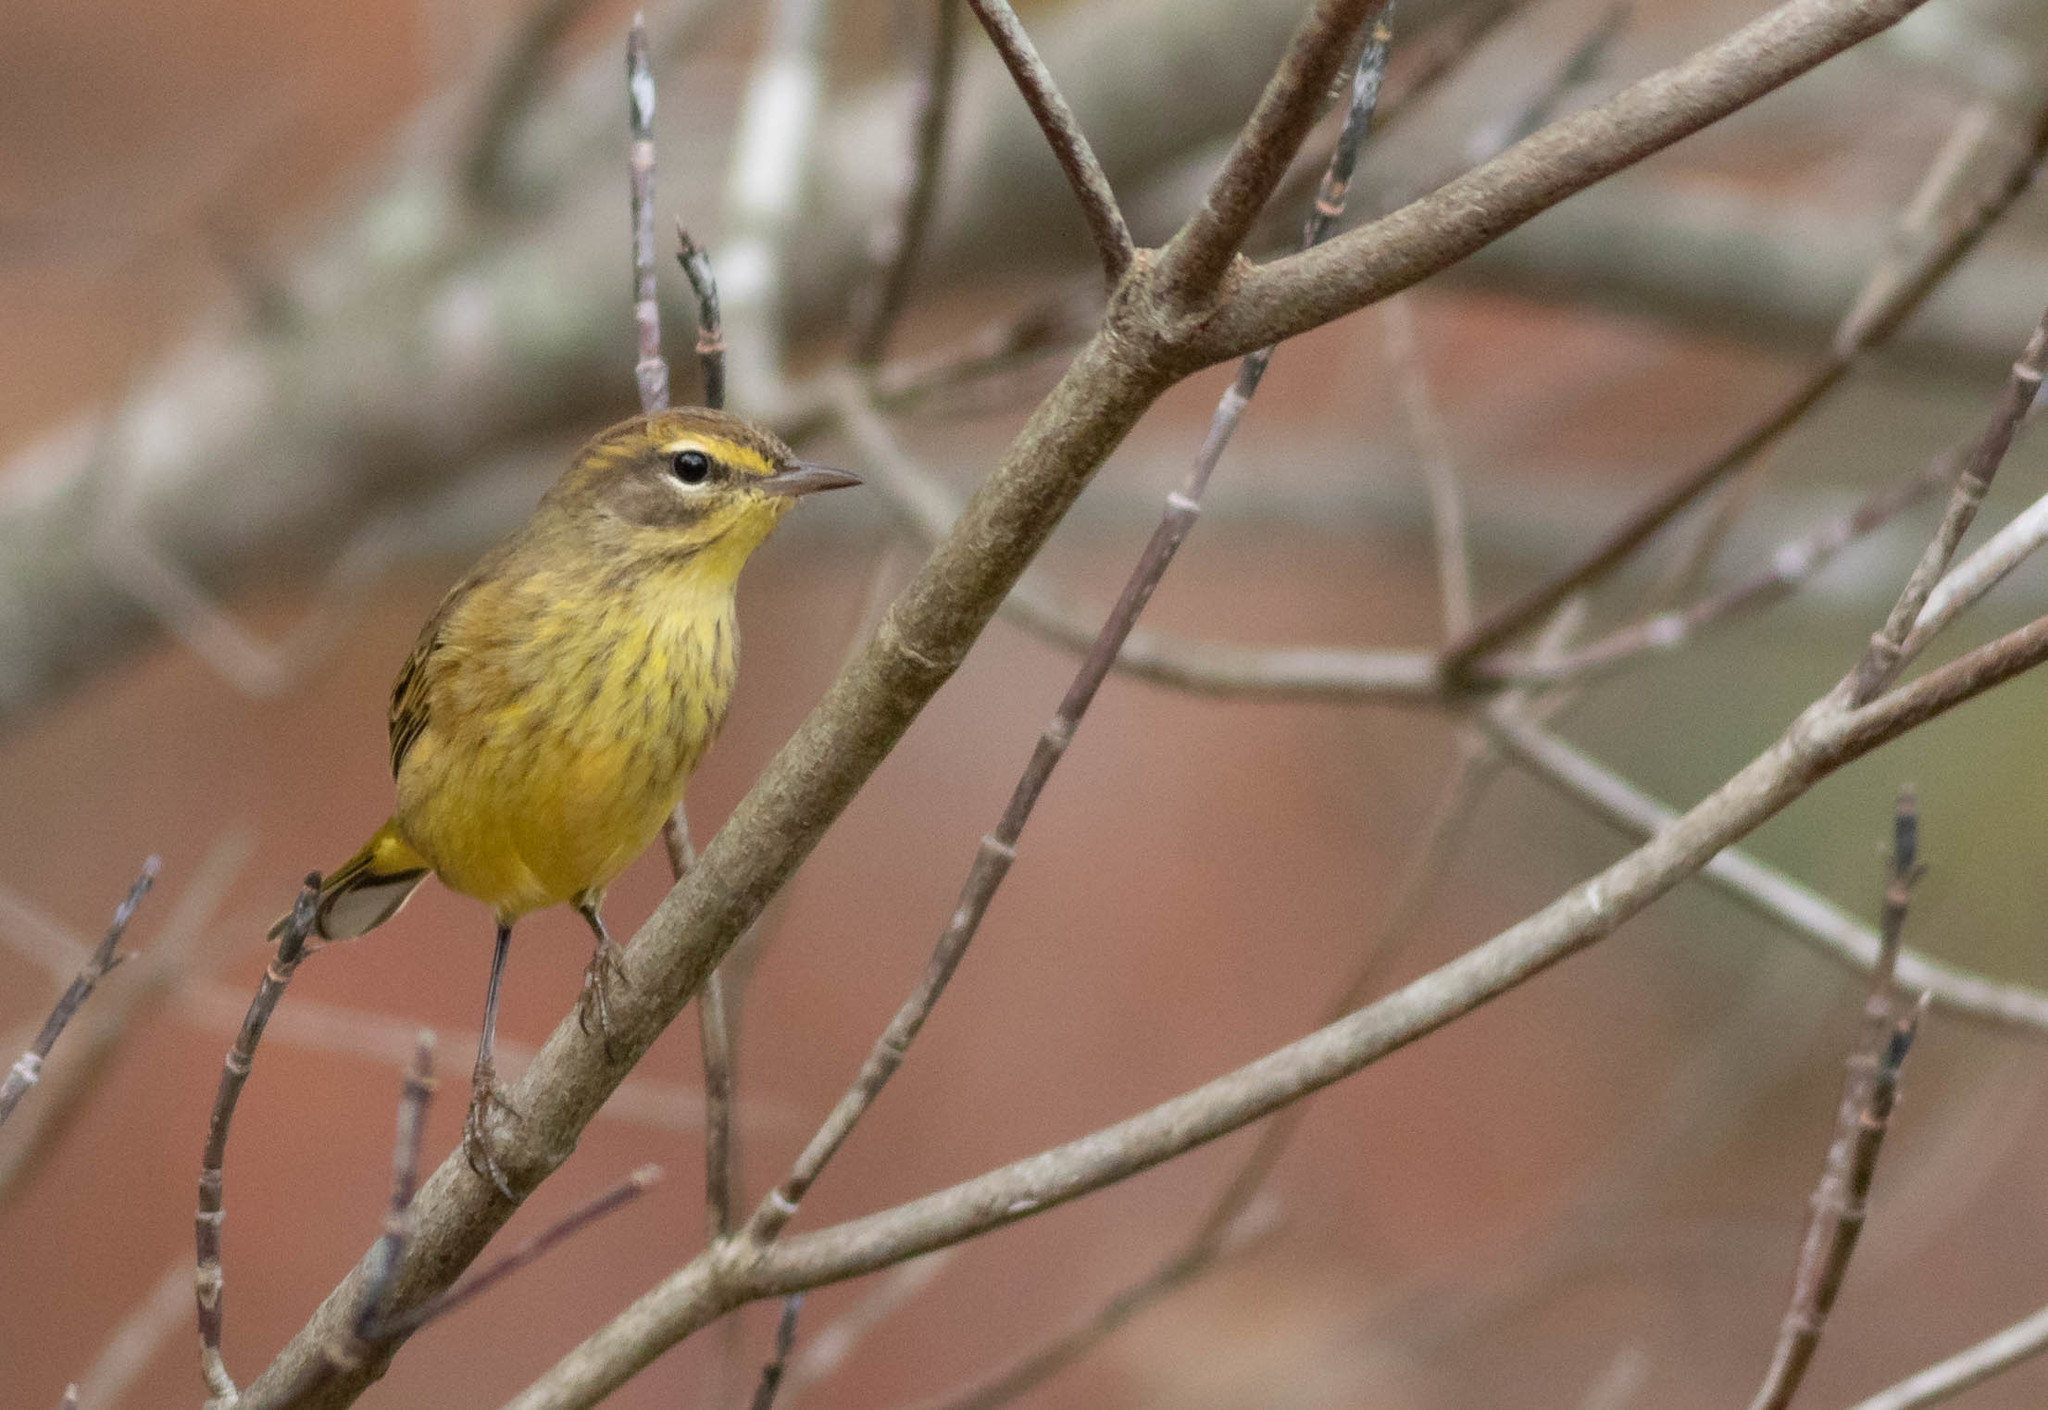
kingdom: Animalia
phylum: Chordata
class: Aves
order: Passeriformes
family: Parulidae
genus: Setophaga
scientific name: Setophaga palmarum
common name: Palm warbler
